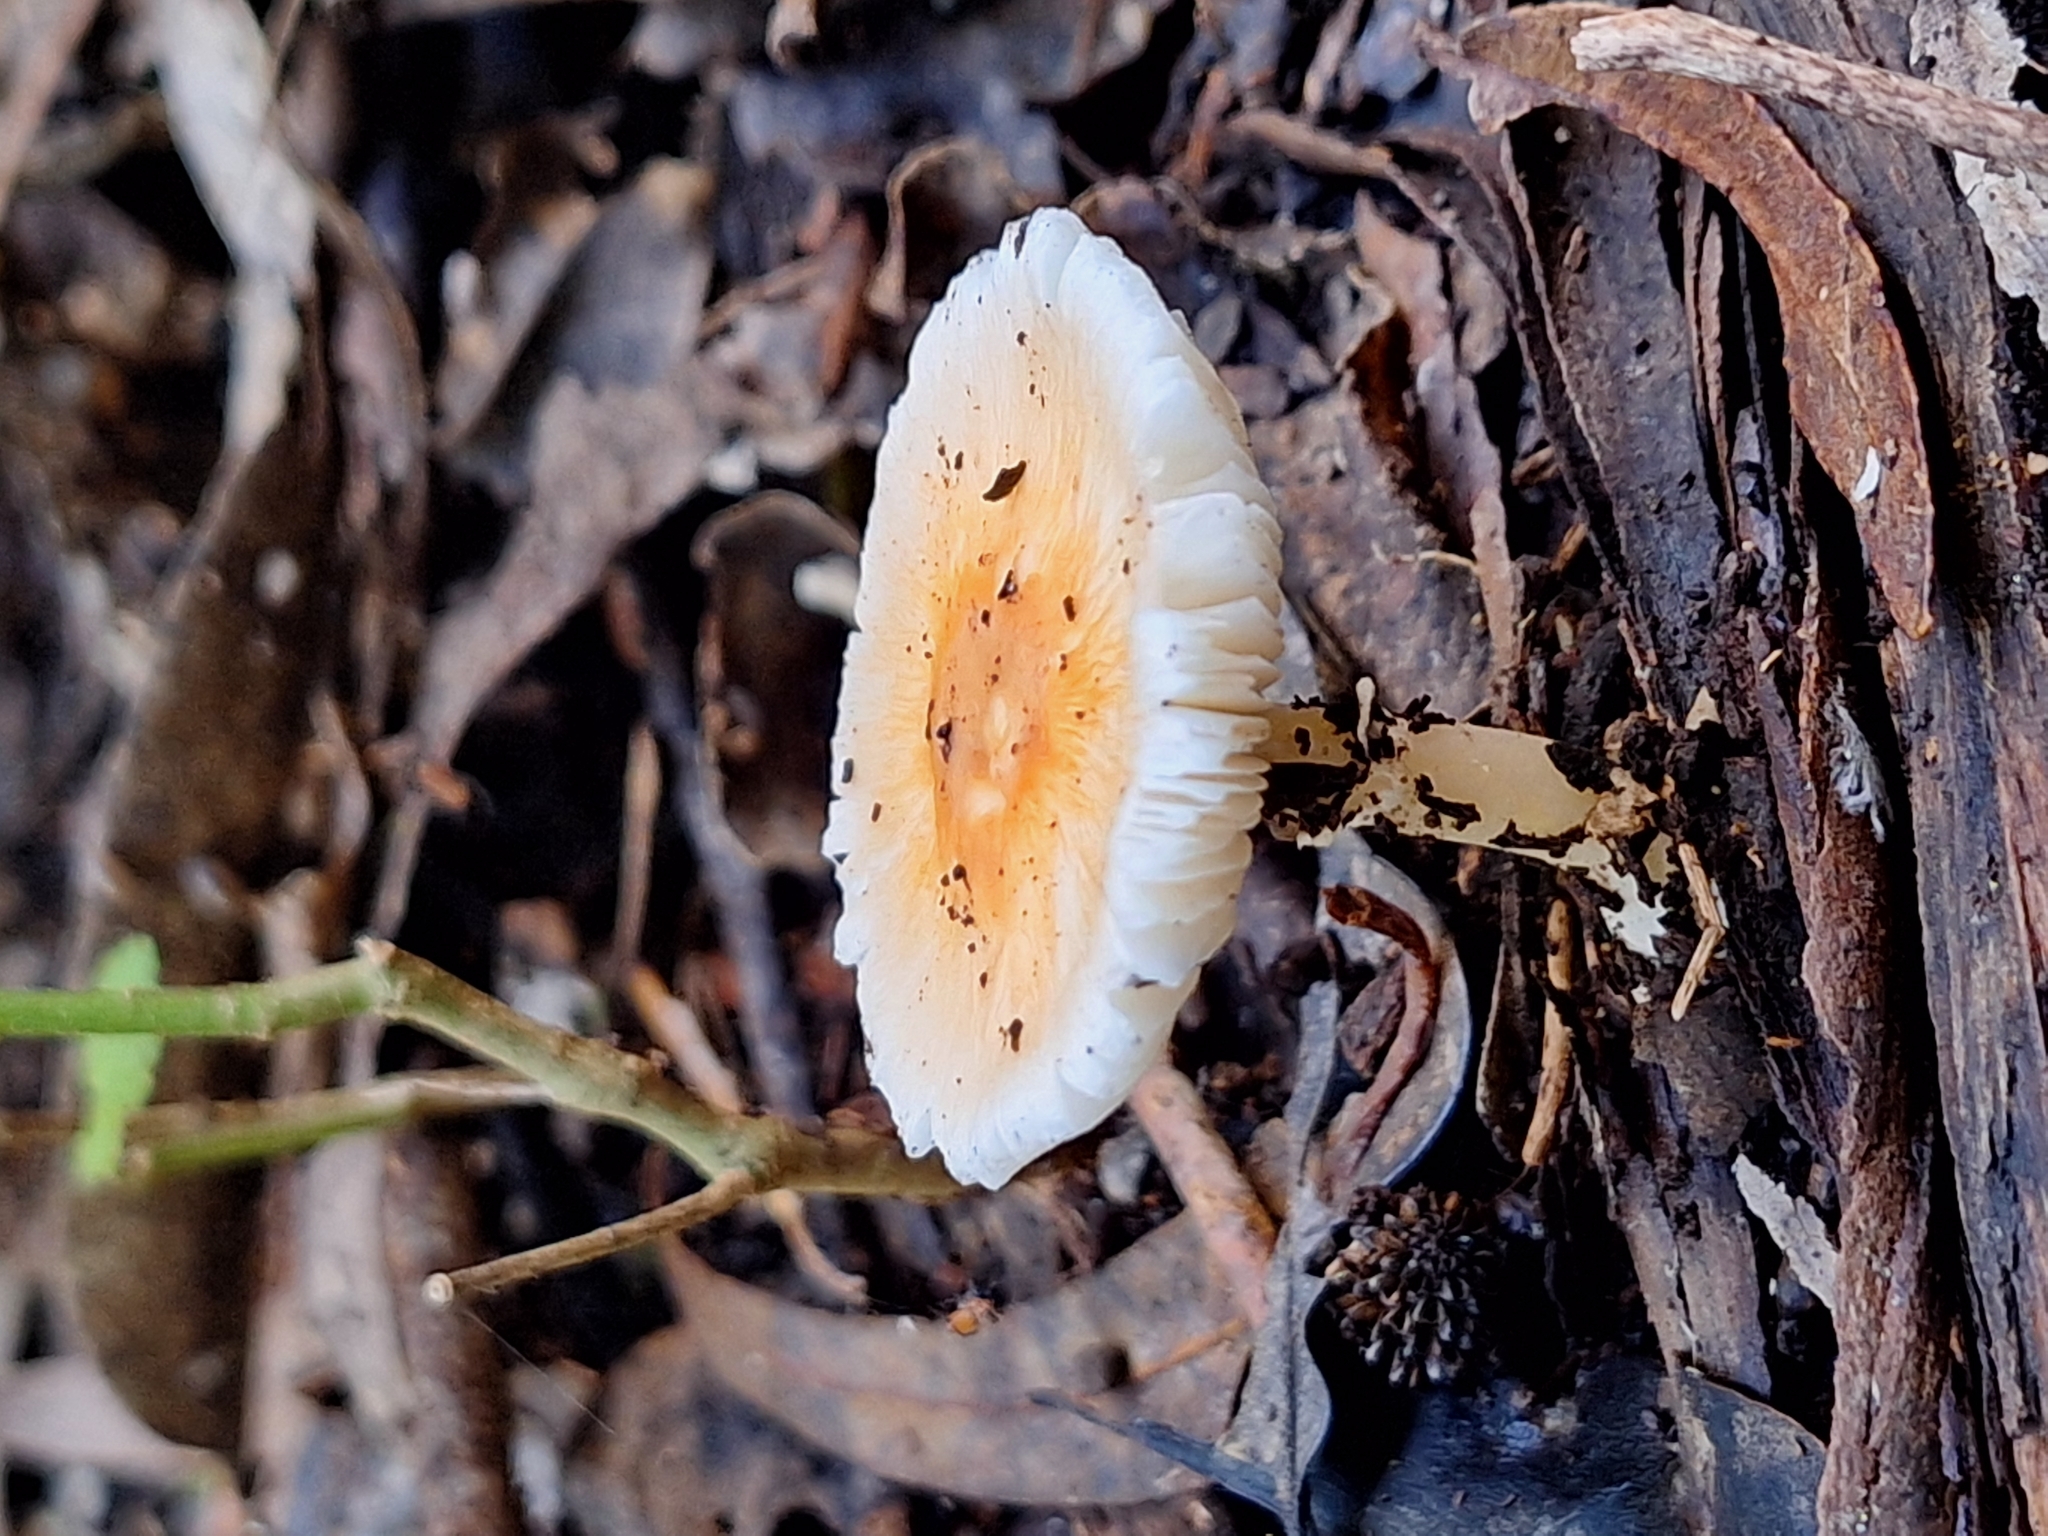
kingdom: Fungi
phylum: Basidiomycota
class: Agaricomycetes
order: Agaricales
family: Agaricaceae
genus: Lepiota
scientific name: Lepiota rubrotinctoides
